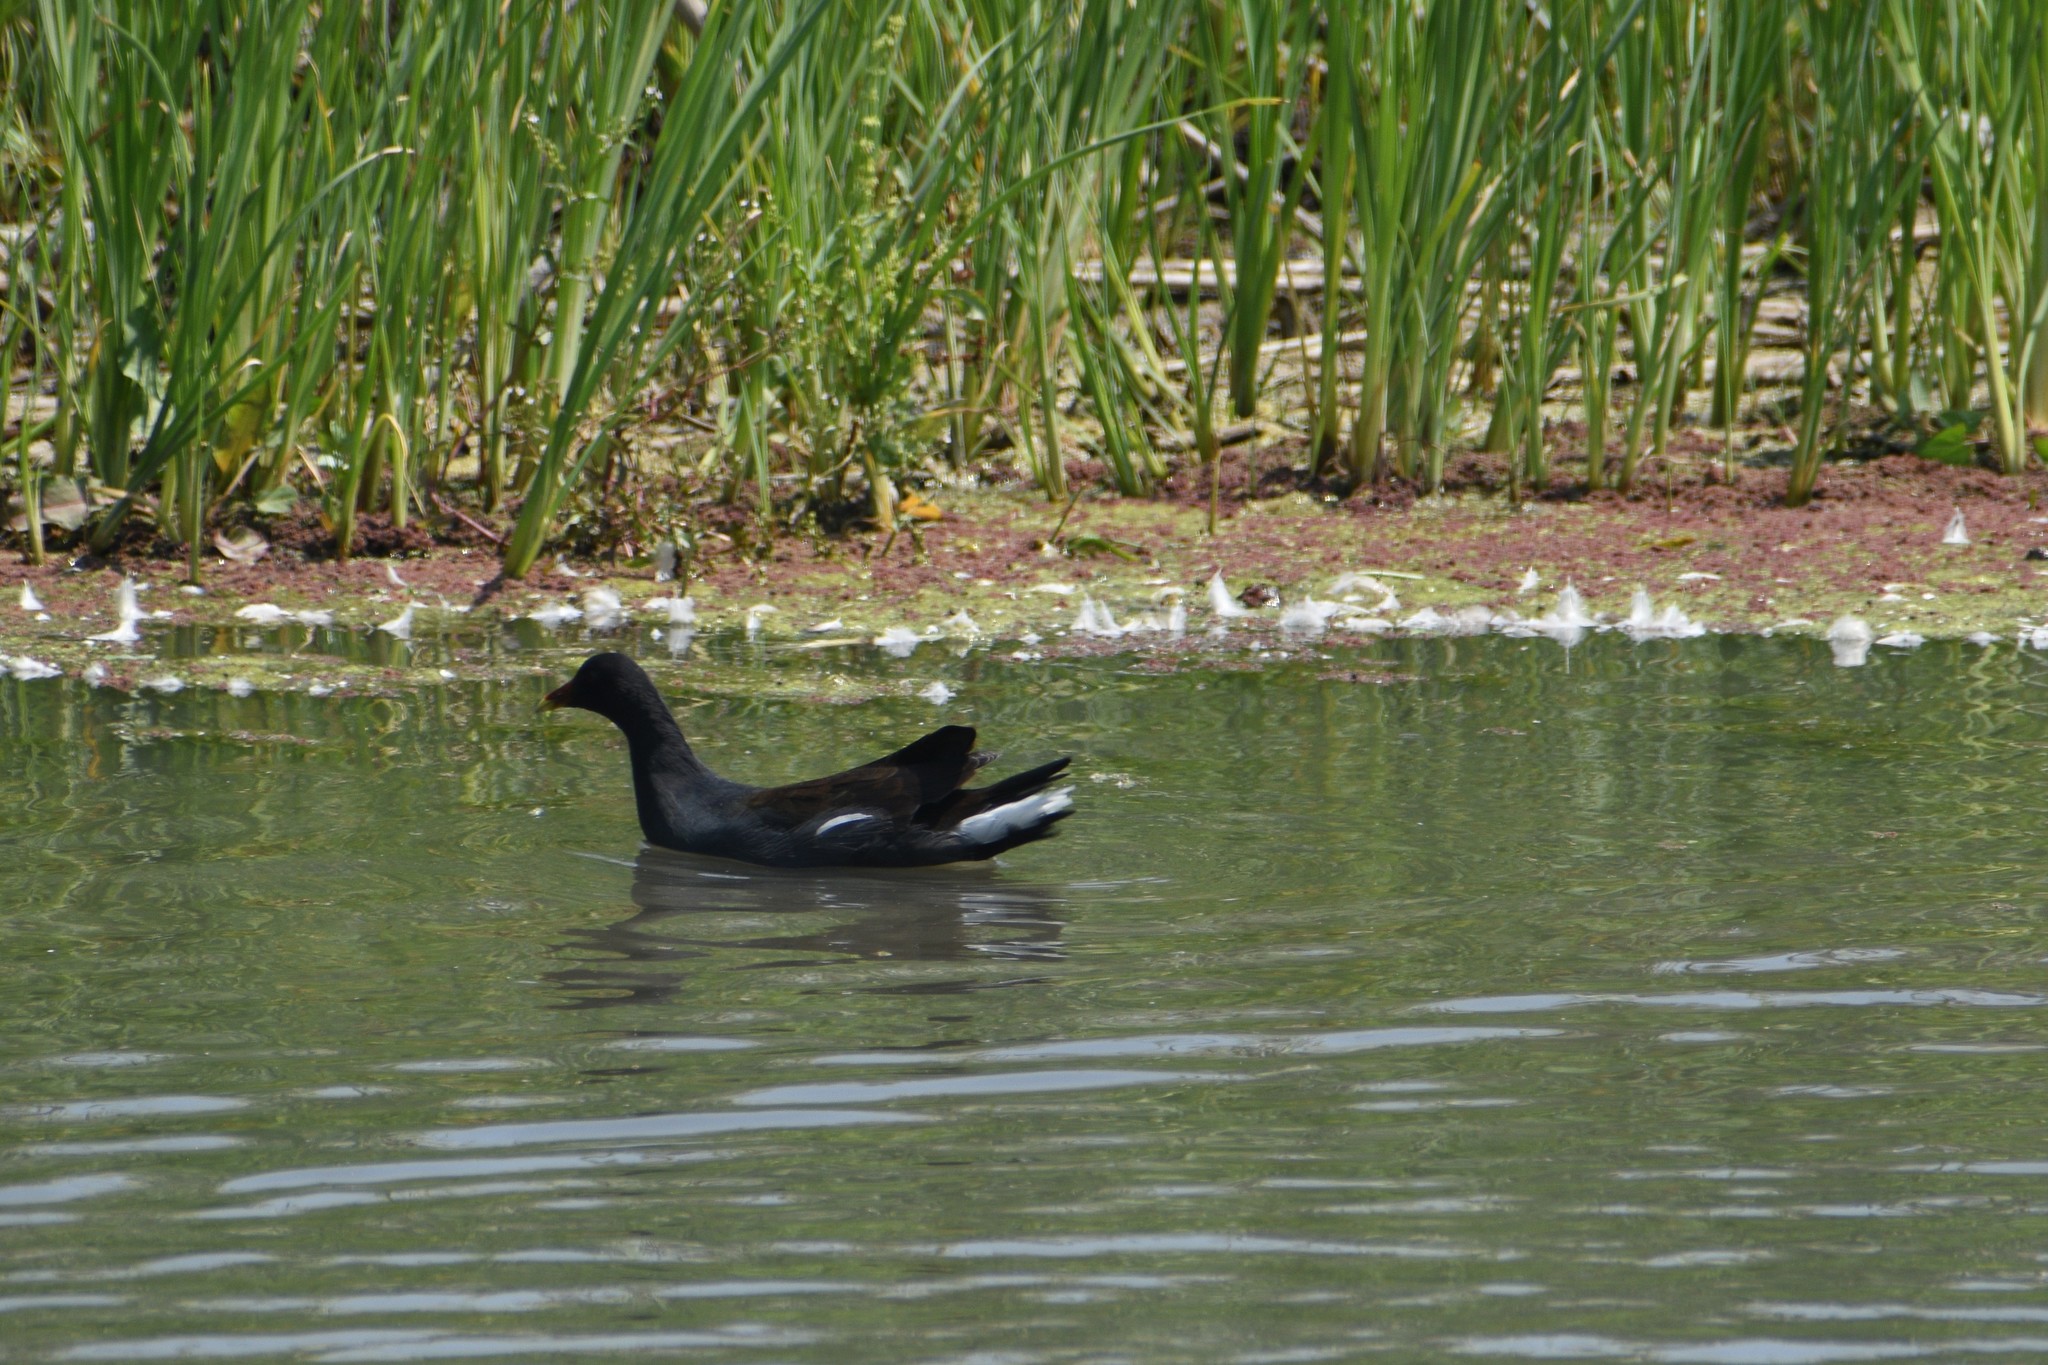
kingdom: Animalia
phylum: Chordata
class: Aves
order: Gruiformes
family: Rallidae
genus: Gallinula
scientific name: Gallinula chloropus
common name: Common moorhen
